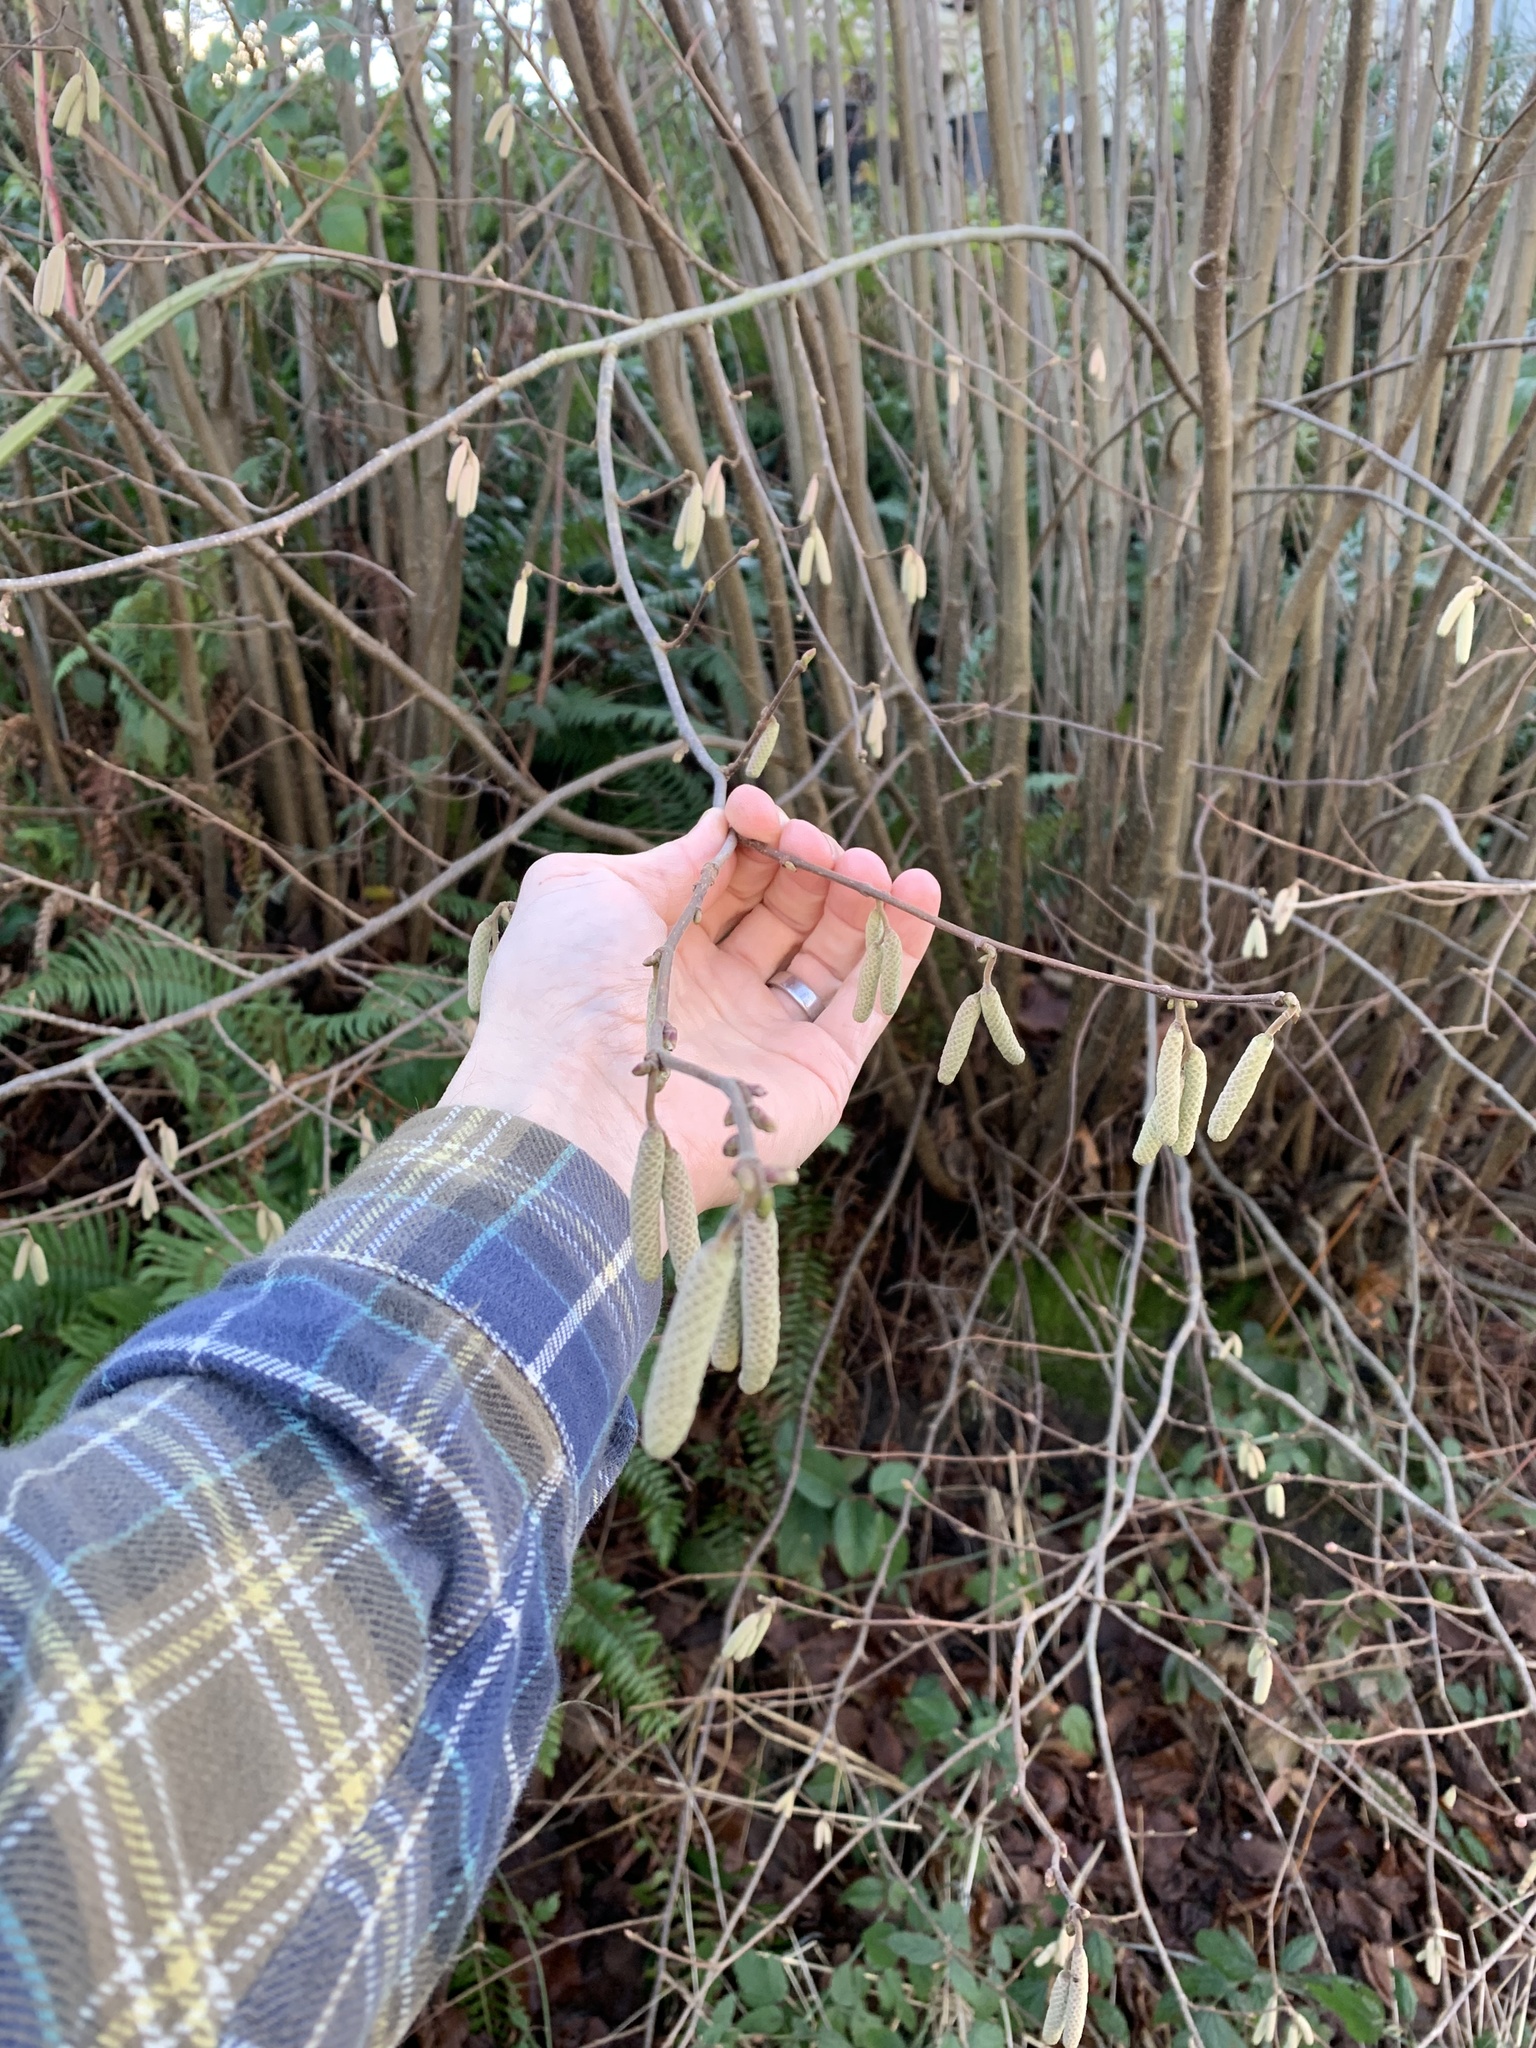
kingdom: Plantae
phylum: Tracheophyta
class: Magnoliopsida
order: Fagales
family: Betulaceae
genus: Corylus
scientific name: Corylus avellana
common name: European hazel
